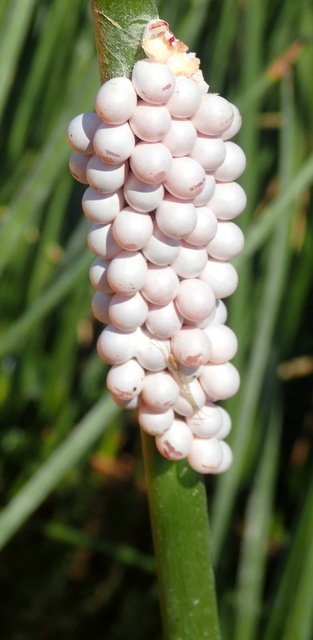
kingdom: Animalia
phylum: Mollusca
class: Gastropoda
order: Architaenioglossa
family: Ampullariidae
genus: Pomacea
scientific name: Pomacea paludosa
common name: Florida applesnail
